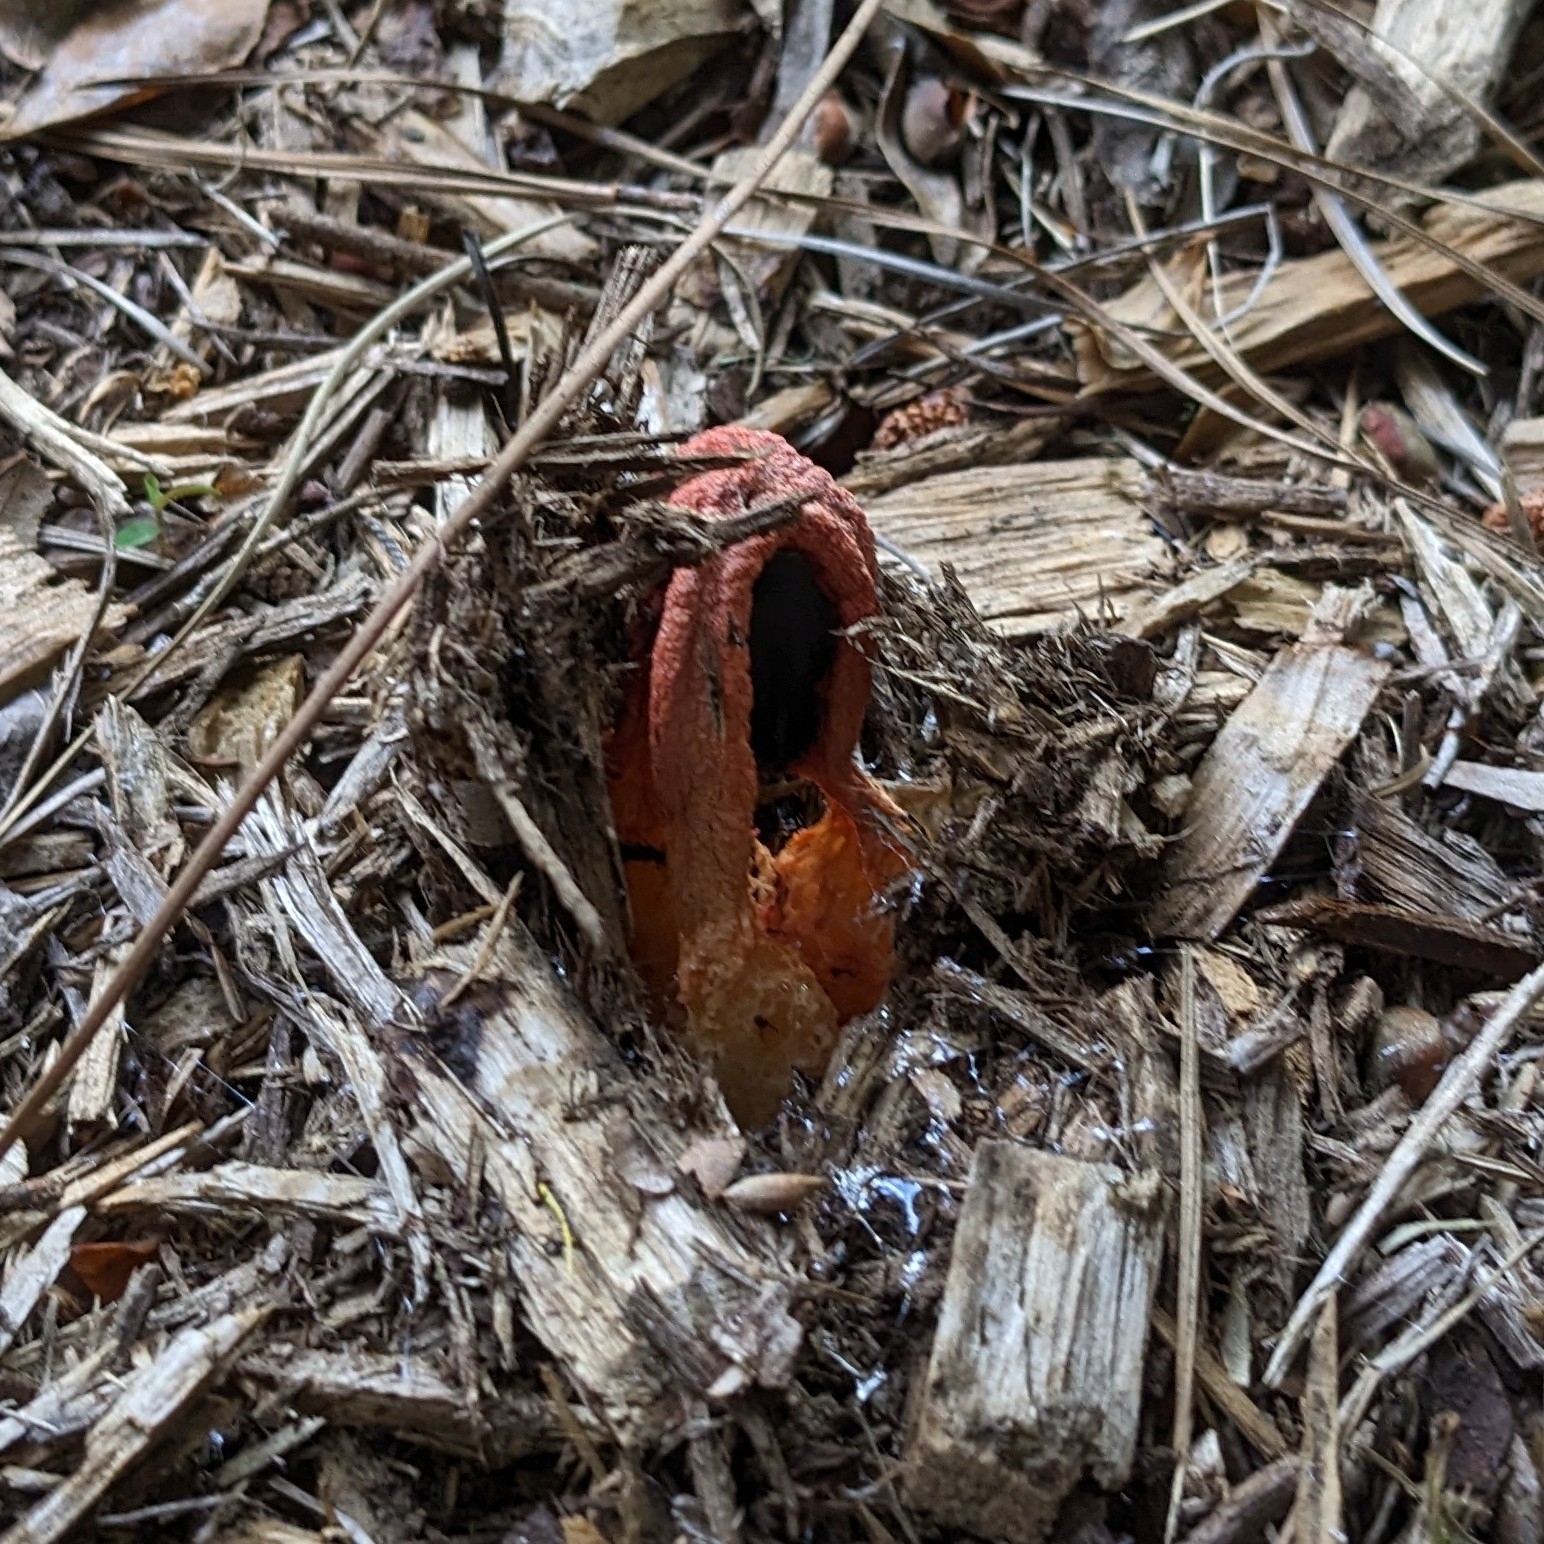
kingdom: Fungi
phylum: Basidiomycota
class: Agaricomycetes
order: Phallales
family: Phallaceae
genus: Clathrus
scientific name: Clathrus columnatus
